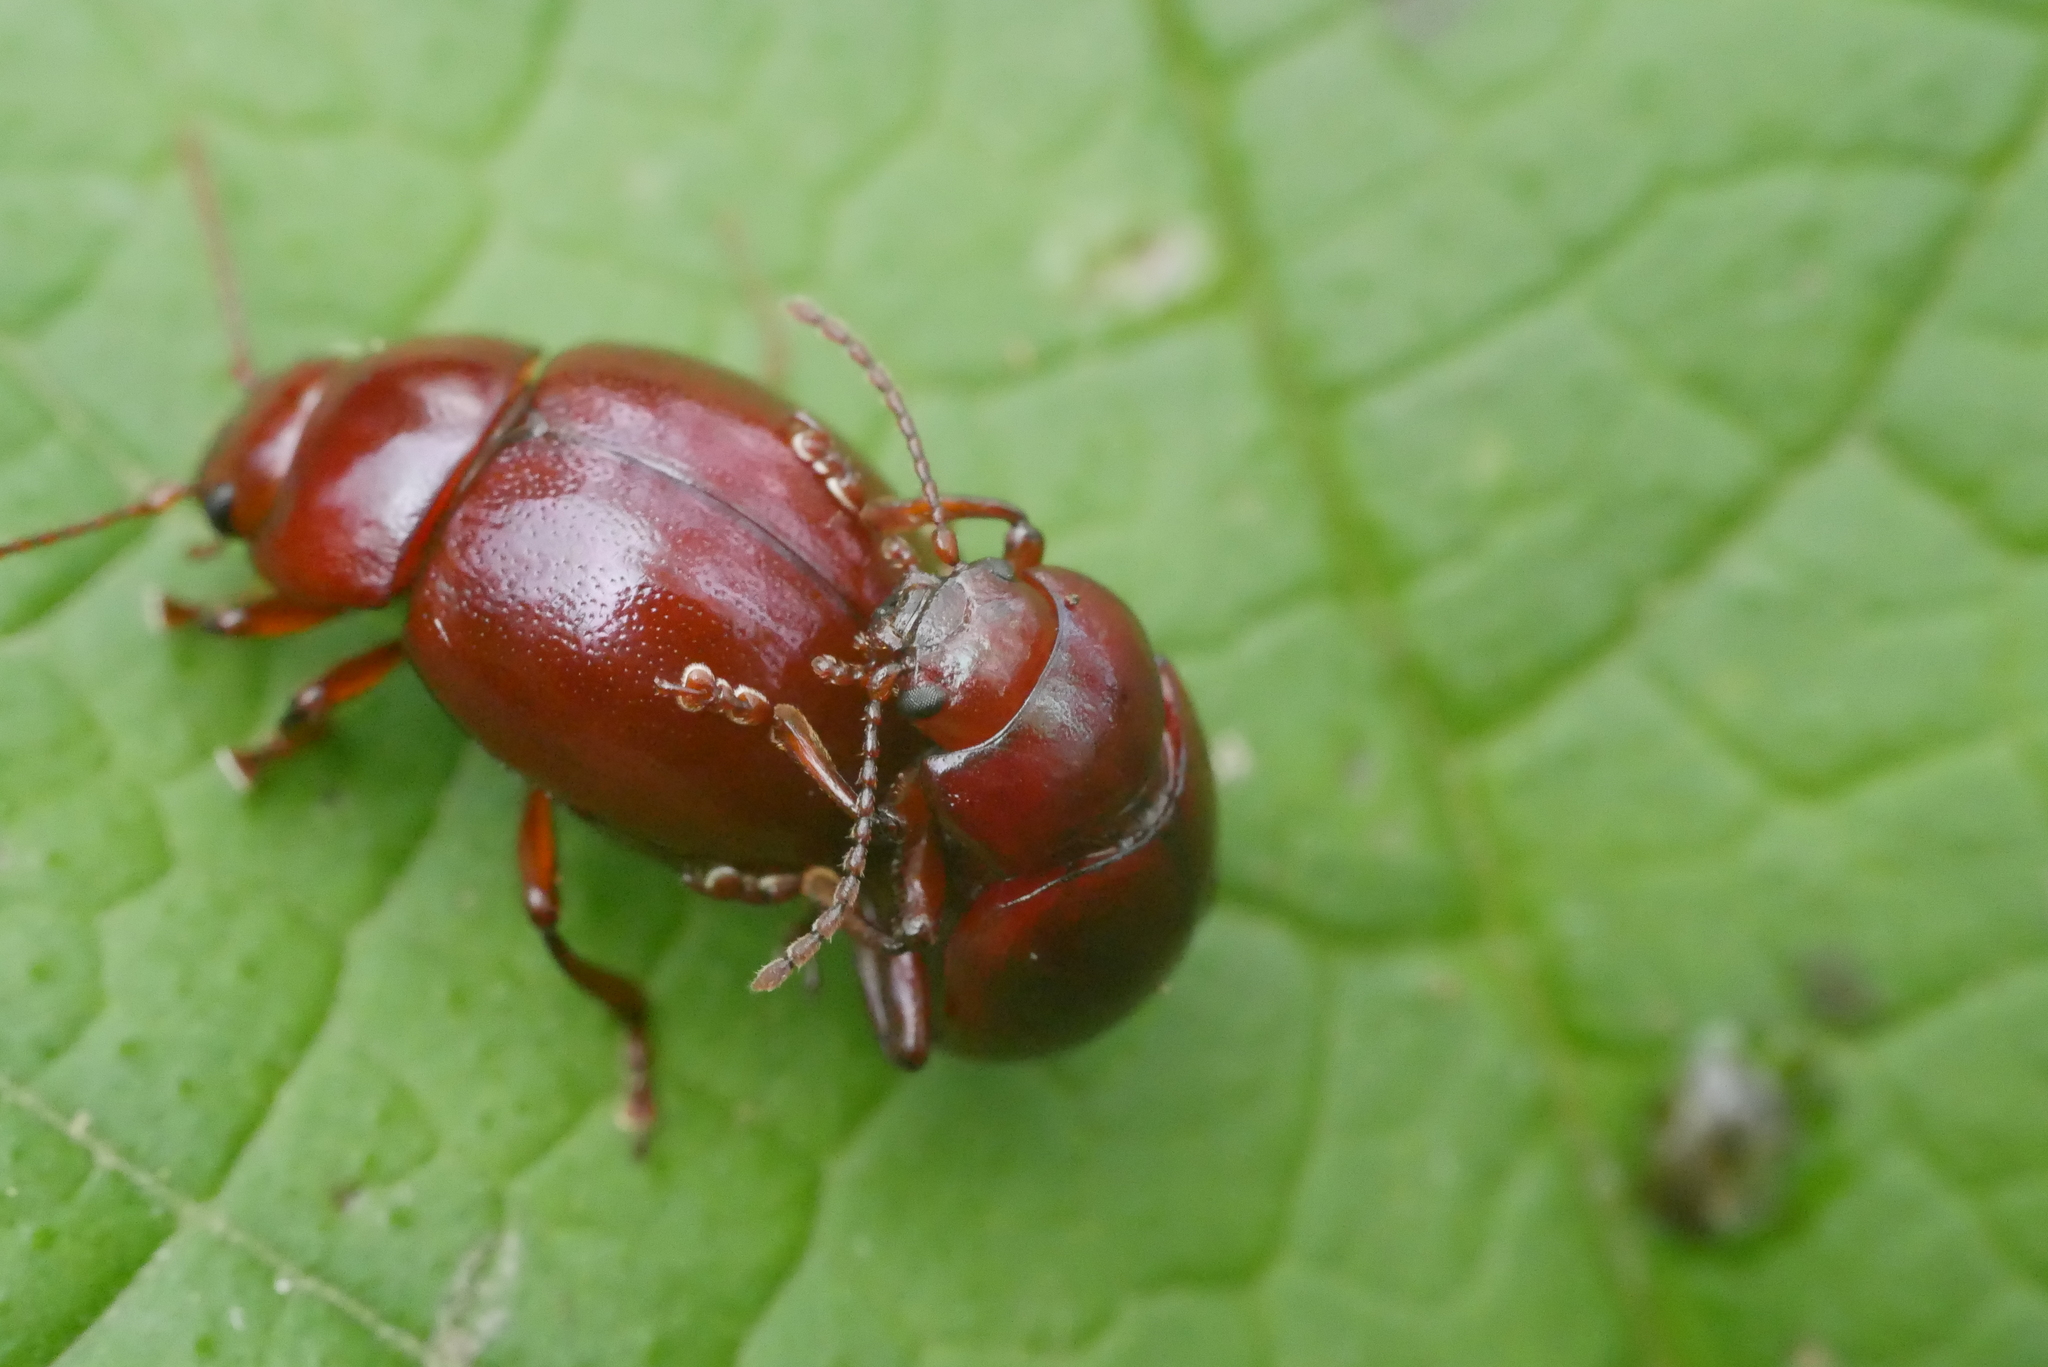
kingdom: Animalia
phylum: Arthropoda
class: Insecta
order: Coleoptera
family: Chrysomelidae
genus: Chrysolina
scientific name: Chrysolina
